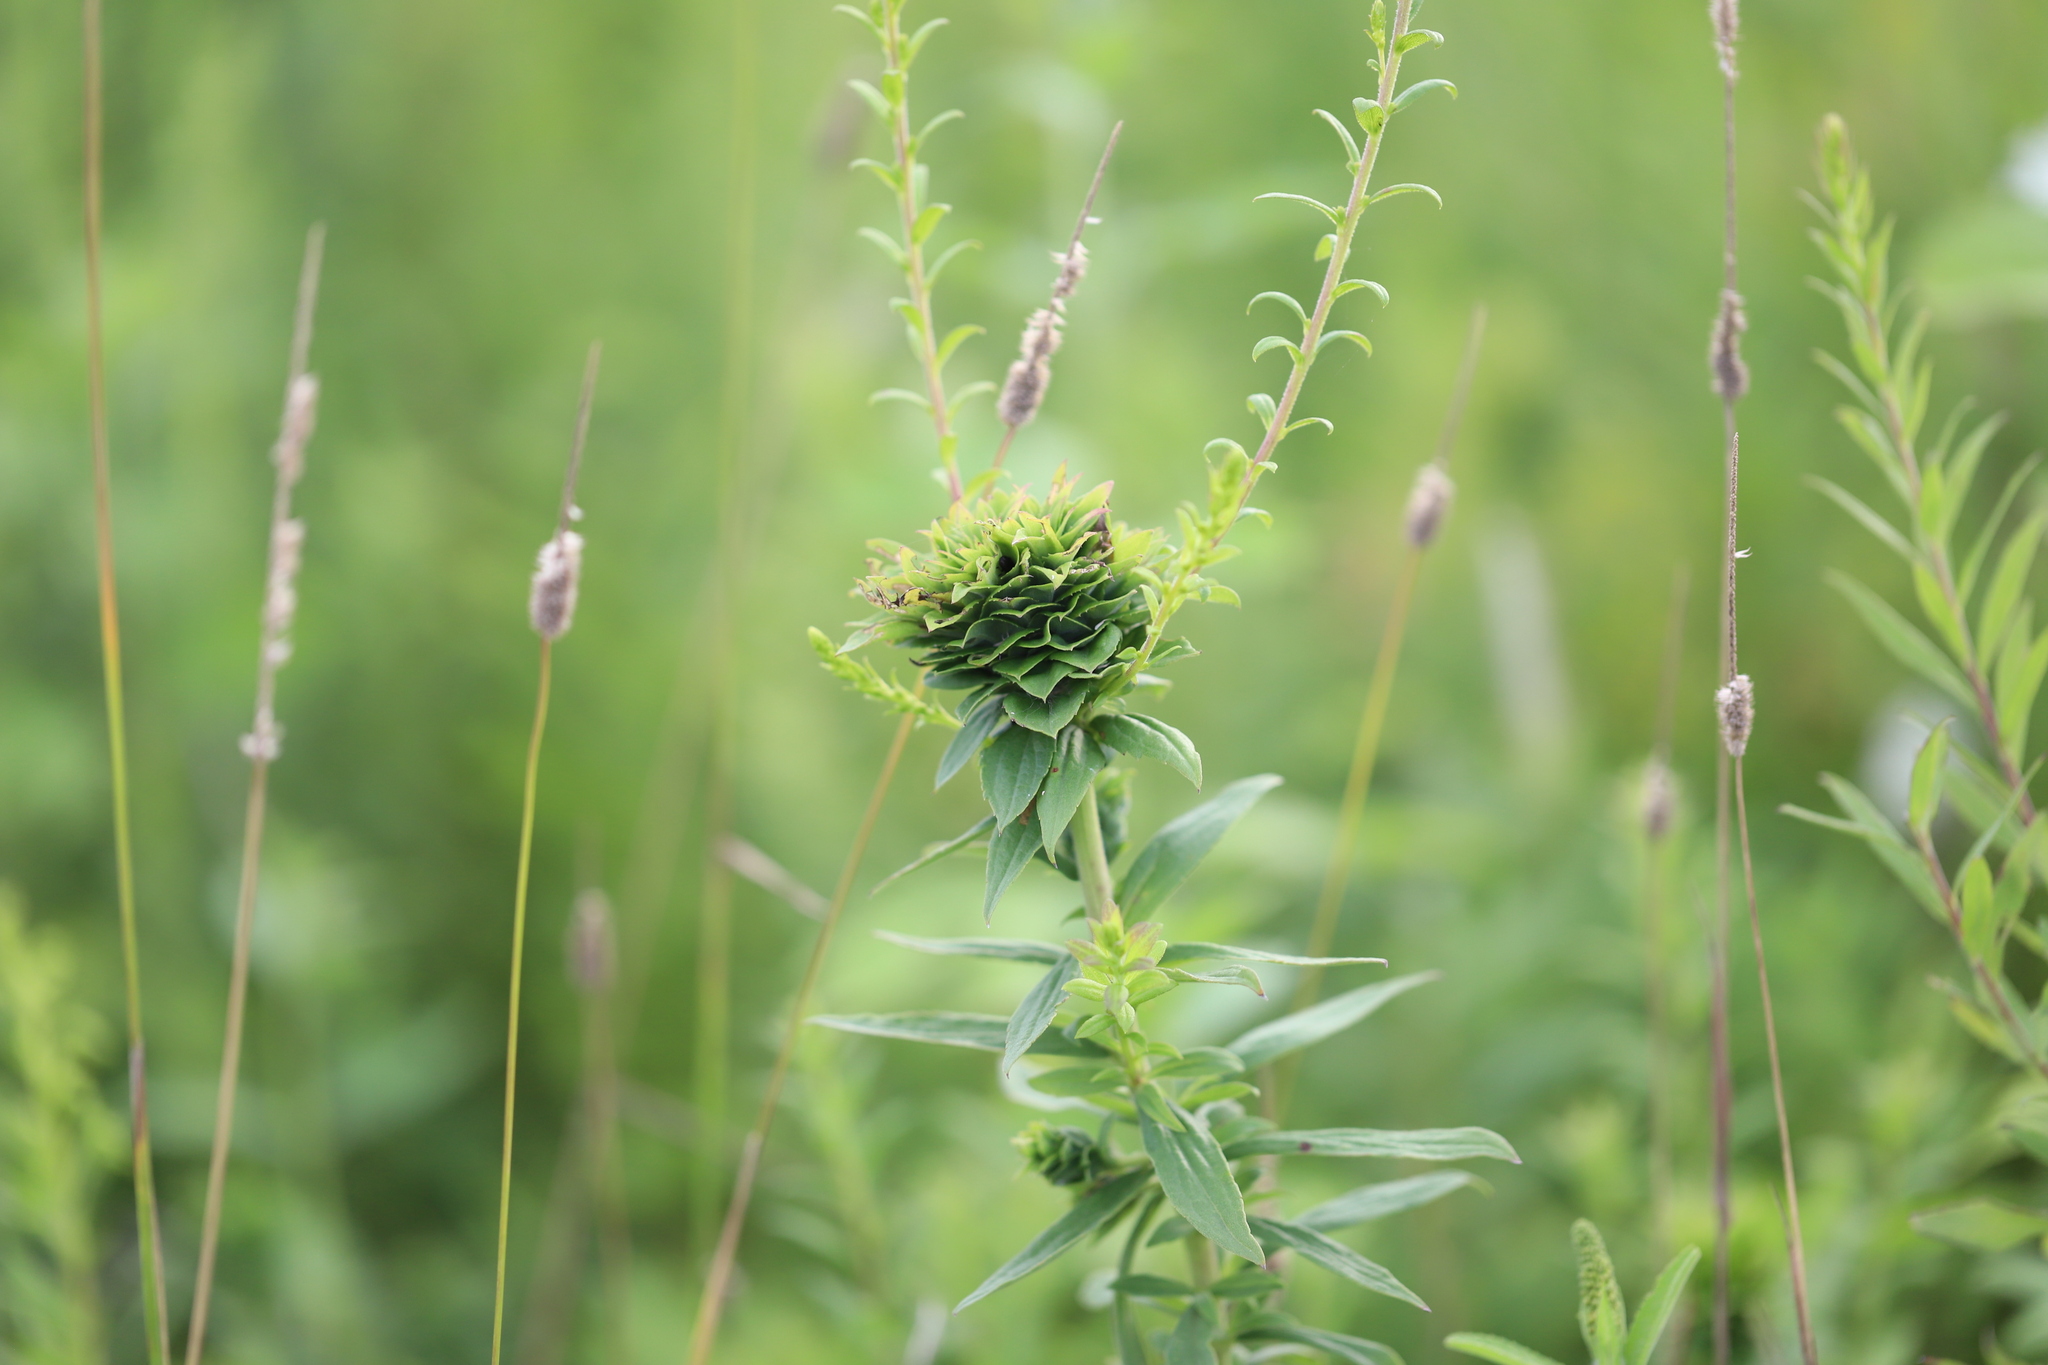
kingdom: Animalia
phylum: Arthropoda
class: Insecta
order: Diptera
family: Cecidomyiidae
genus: Rhopalomyia
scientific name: Rhopalomyia solidaginis
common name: Goldenrod bunch gall midge
